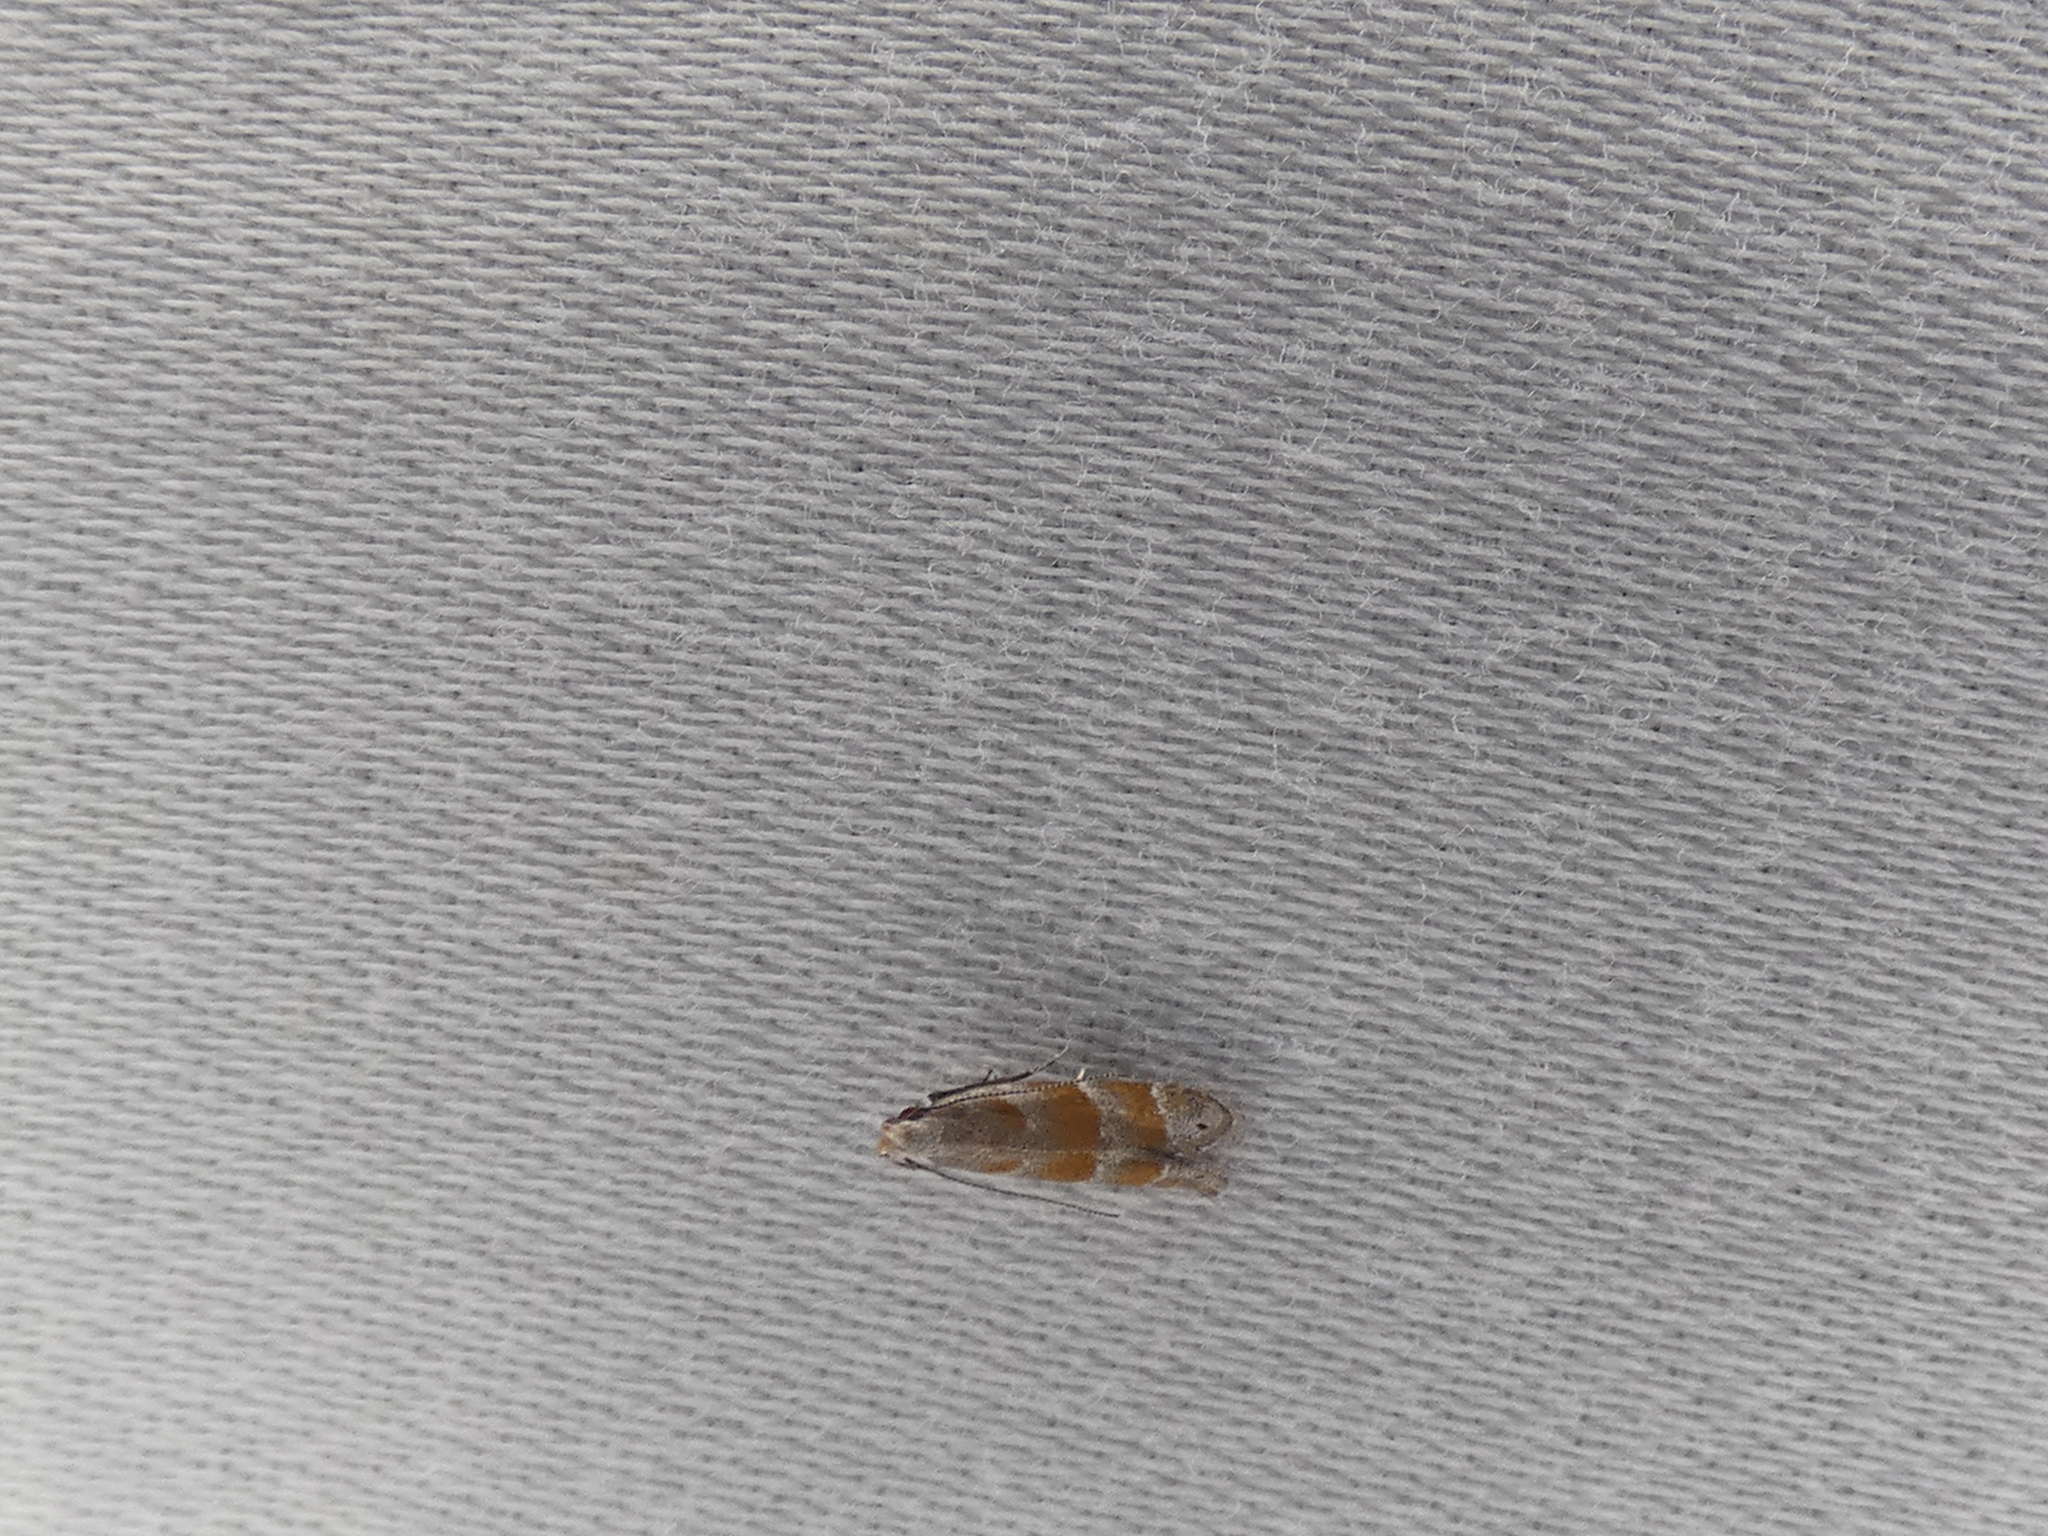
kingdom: Animalia
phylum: Arthropoda
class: Insecta
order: Lepidoptera
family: Gelechiidae
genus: Battaristis
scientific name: Battaristis vittella
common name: Orange stripe-backed moth
